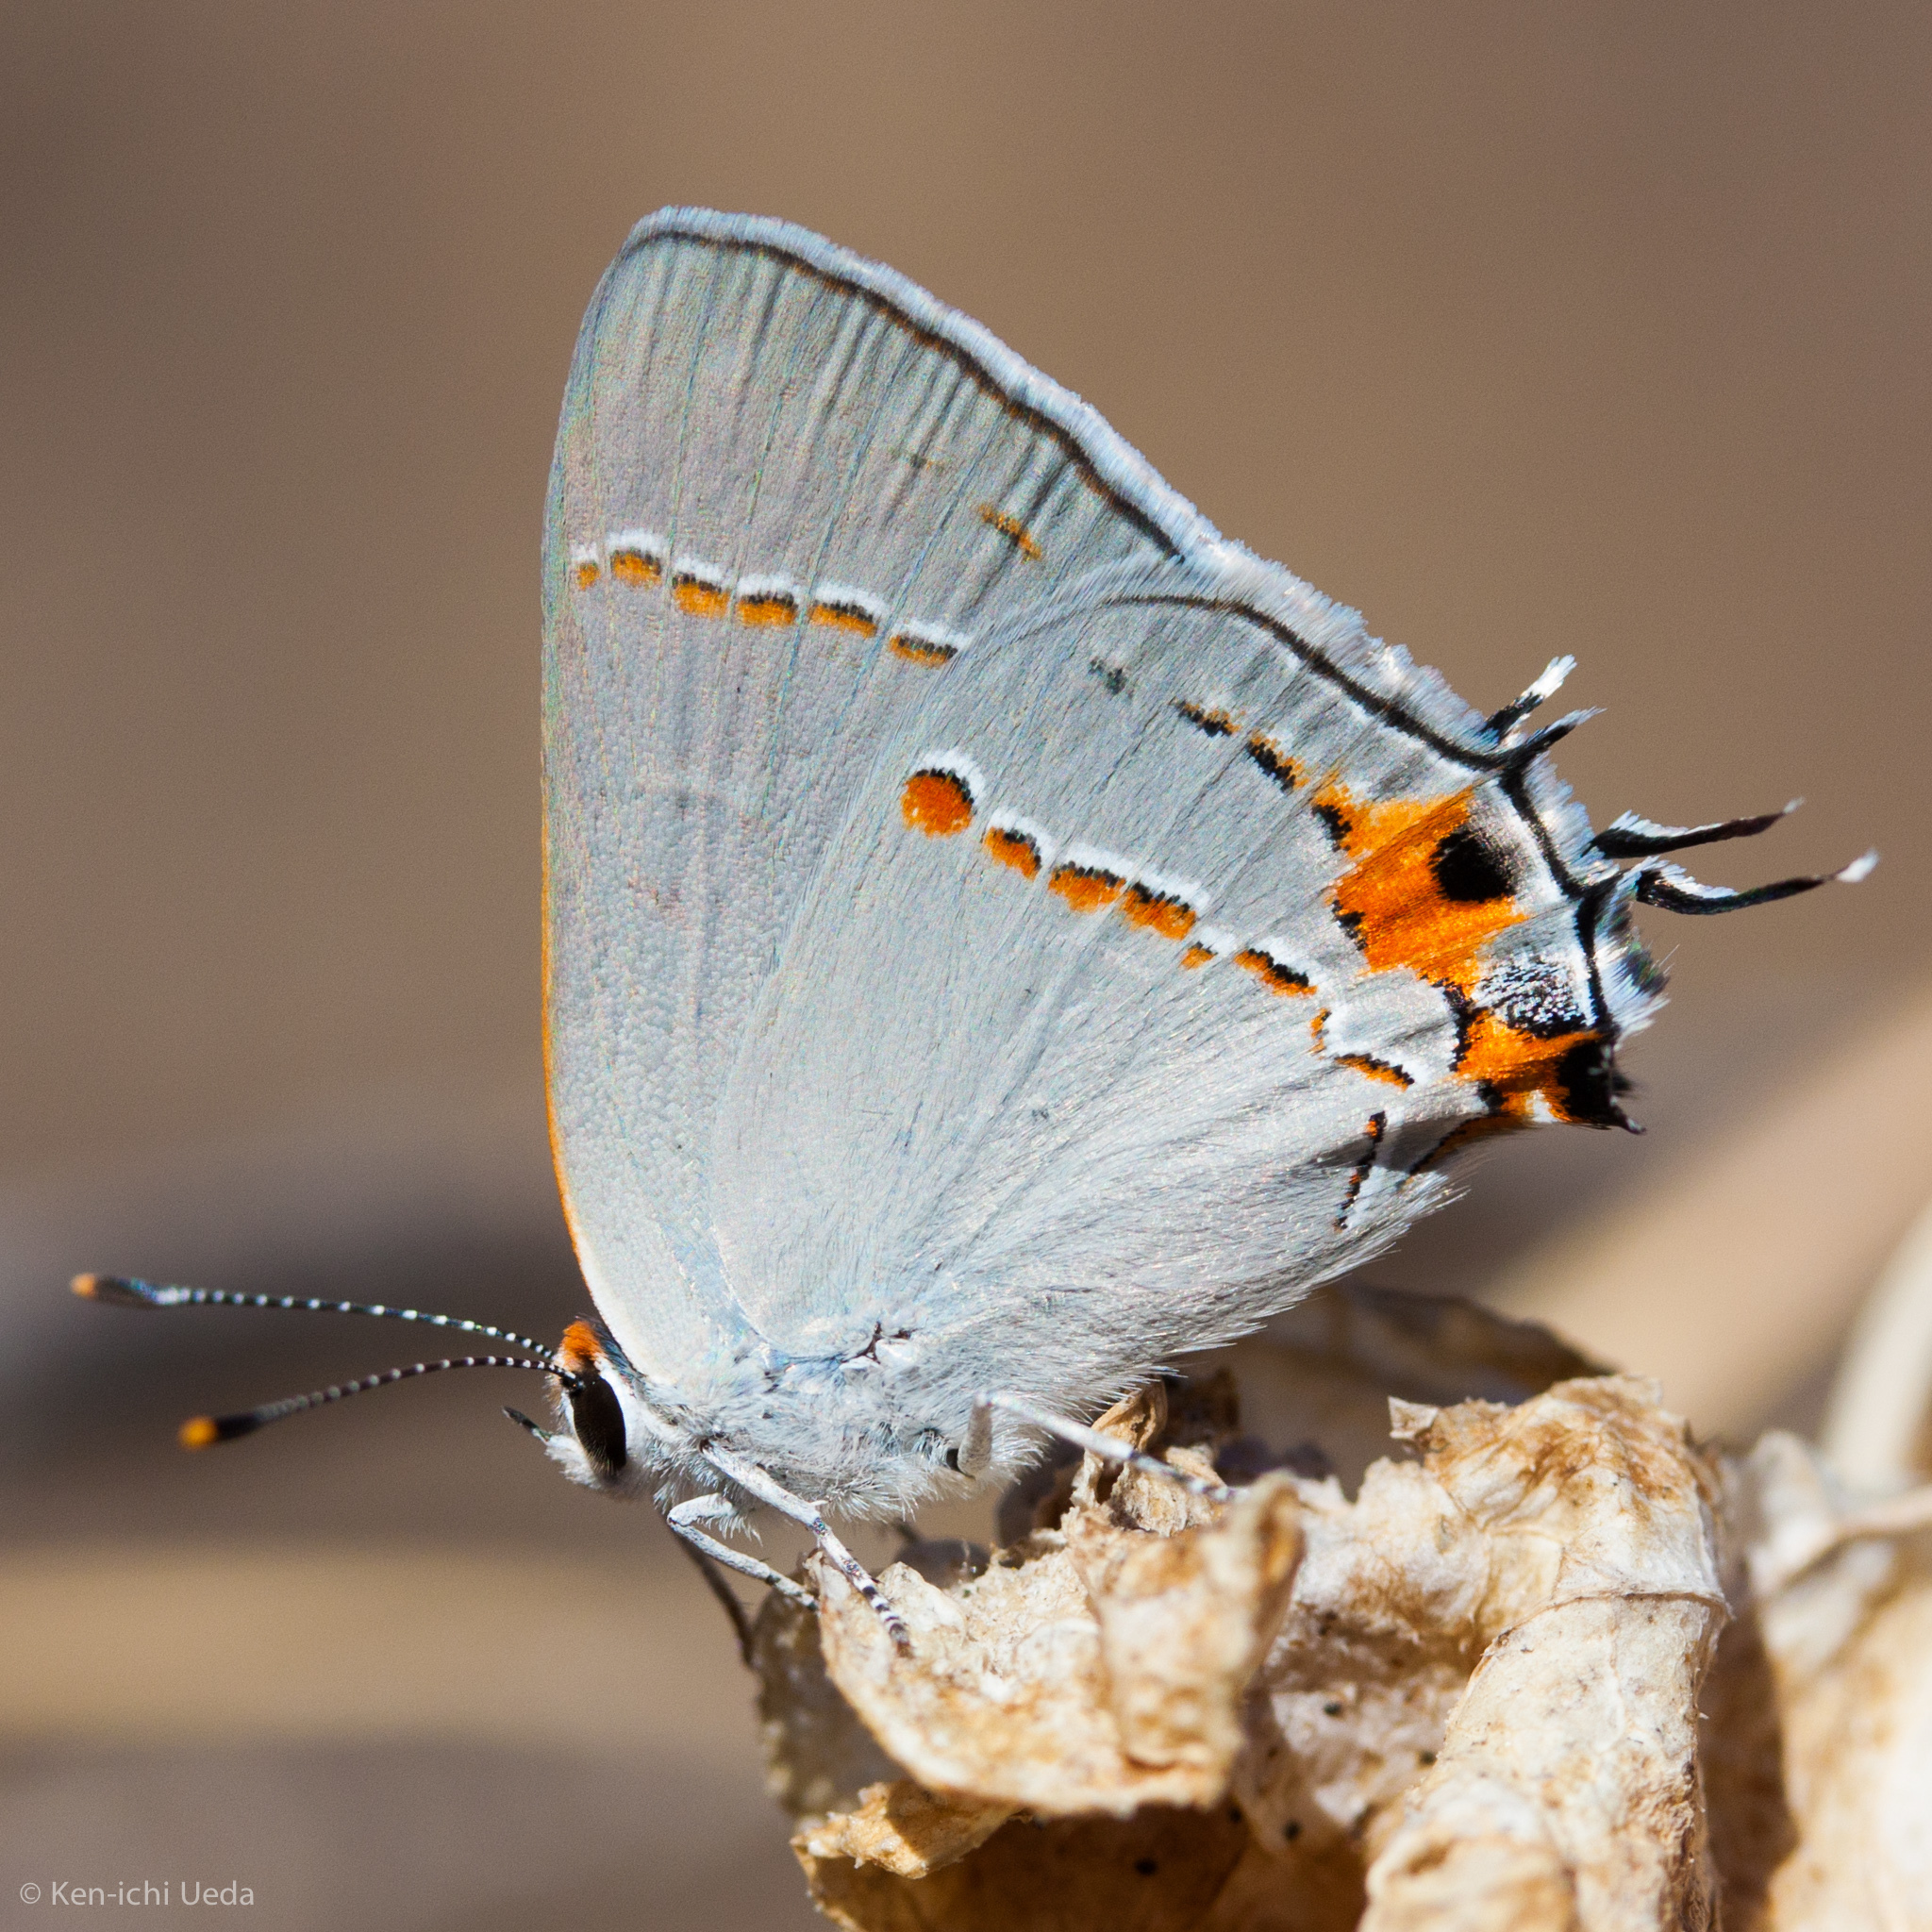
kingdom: Animalia
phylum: Arthropoda
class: Insecta
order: Lepidoptera
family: Lycaenidae
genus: Strymon
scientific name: Strymon melinus
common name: Gray hairstreak
